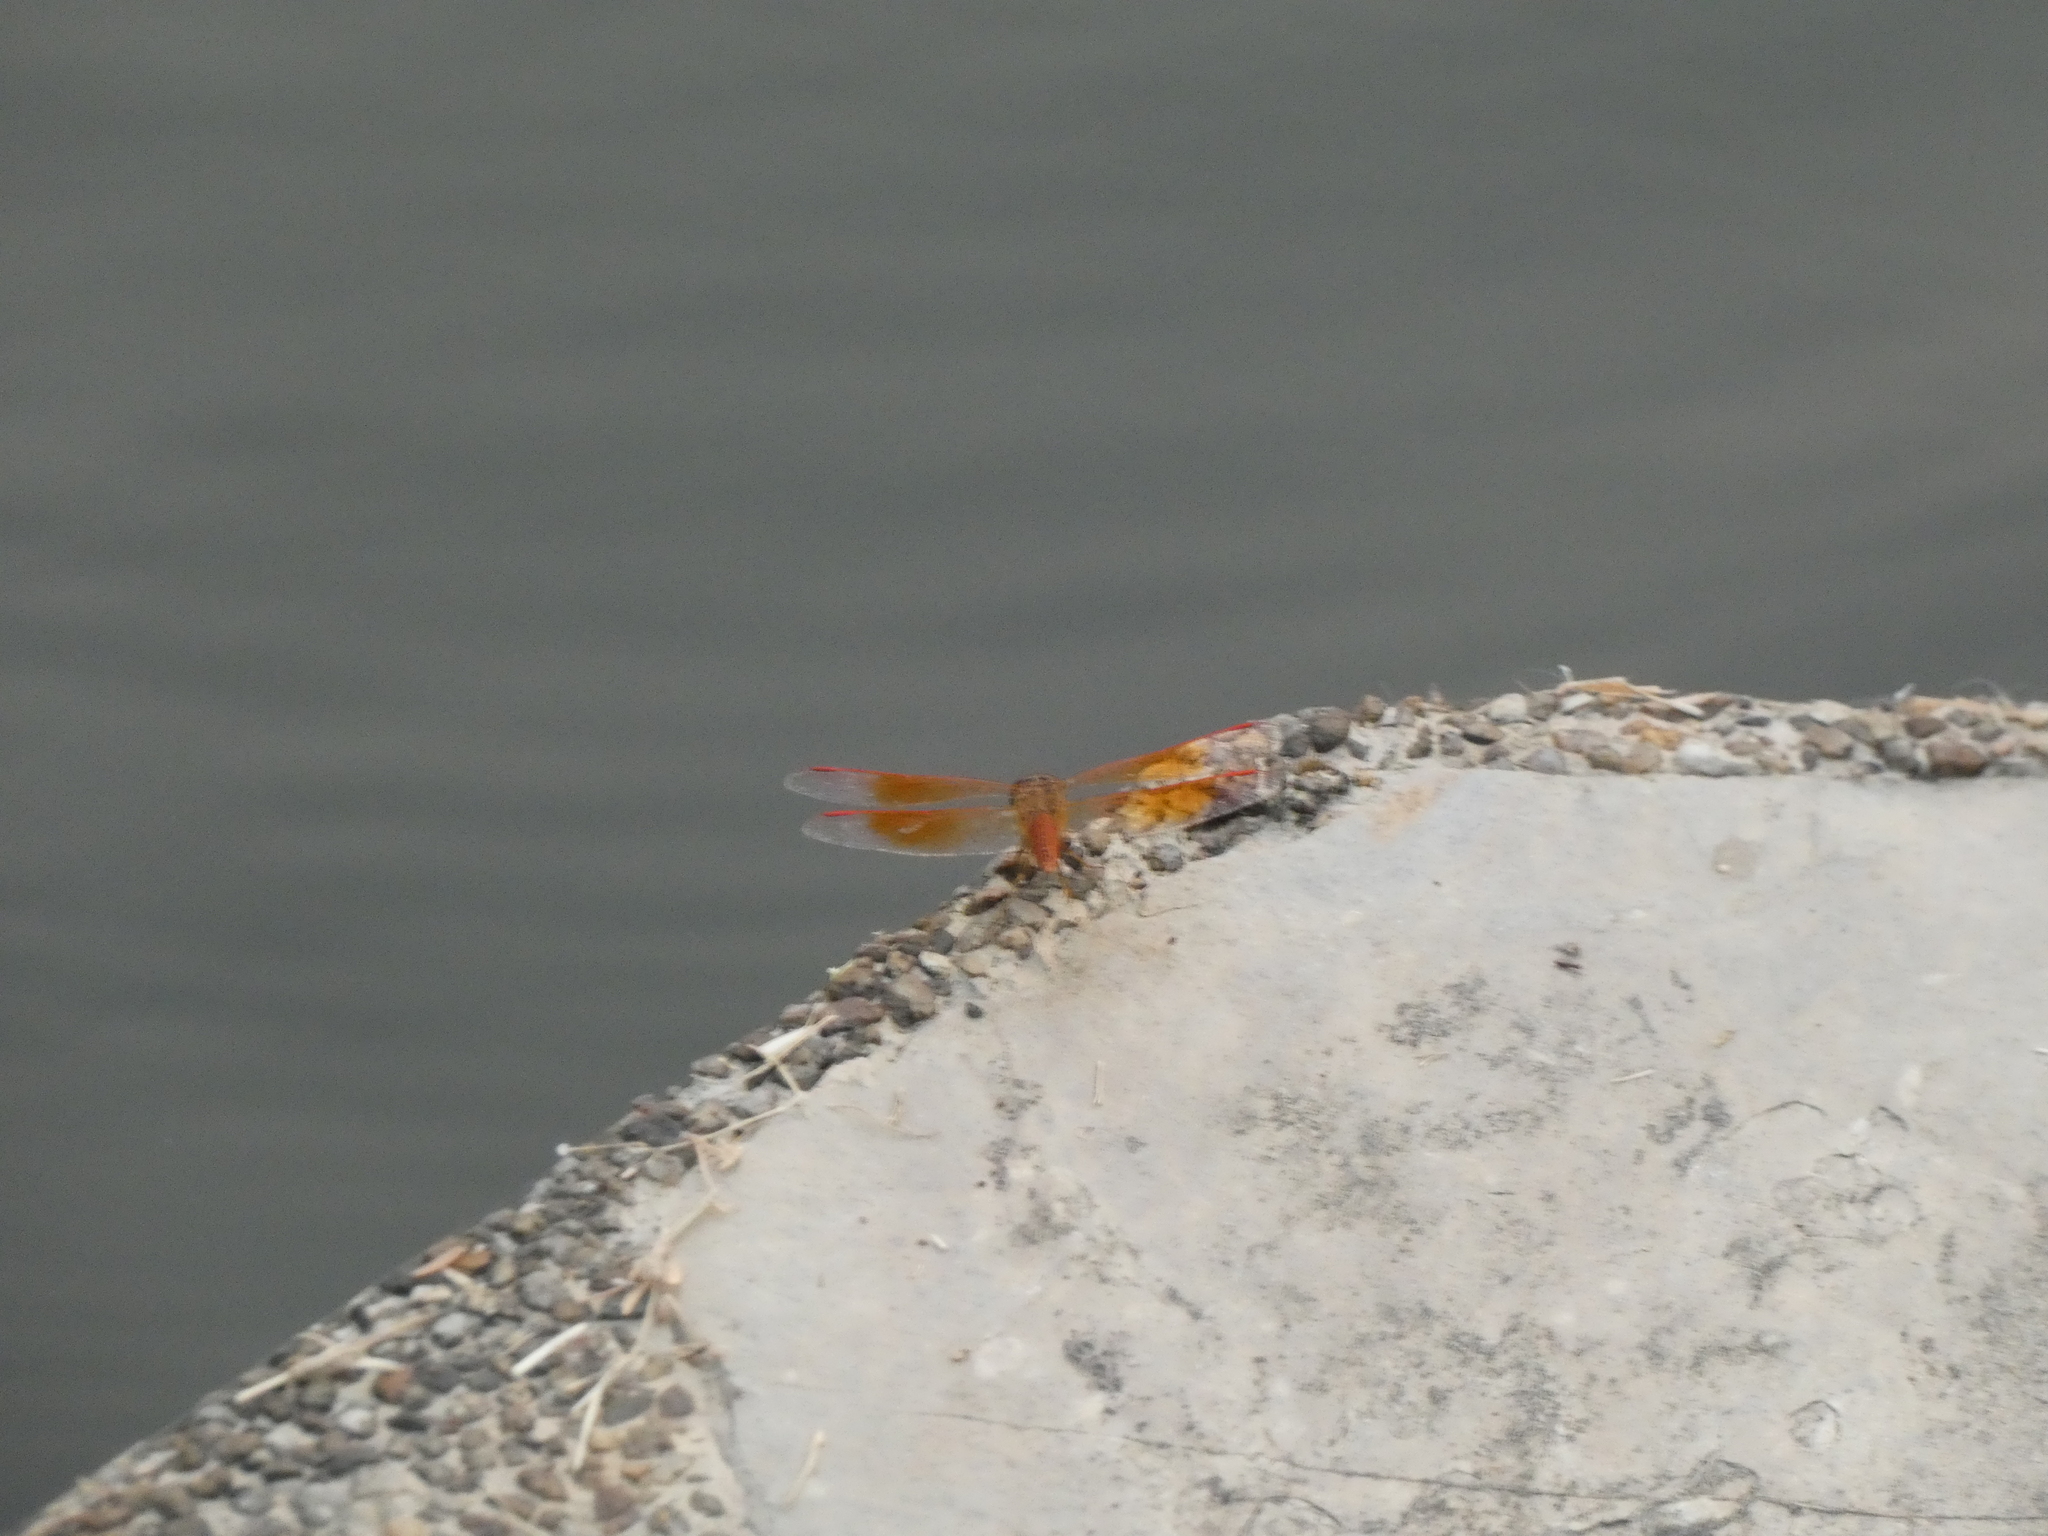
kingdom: Animalia
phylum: Arthropoda
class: Insecta
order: Odonata
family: Libellulidae
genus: Brachythemis
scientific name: Brachythemis contaminata
